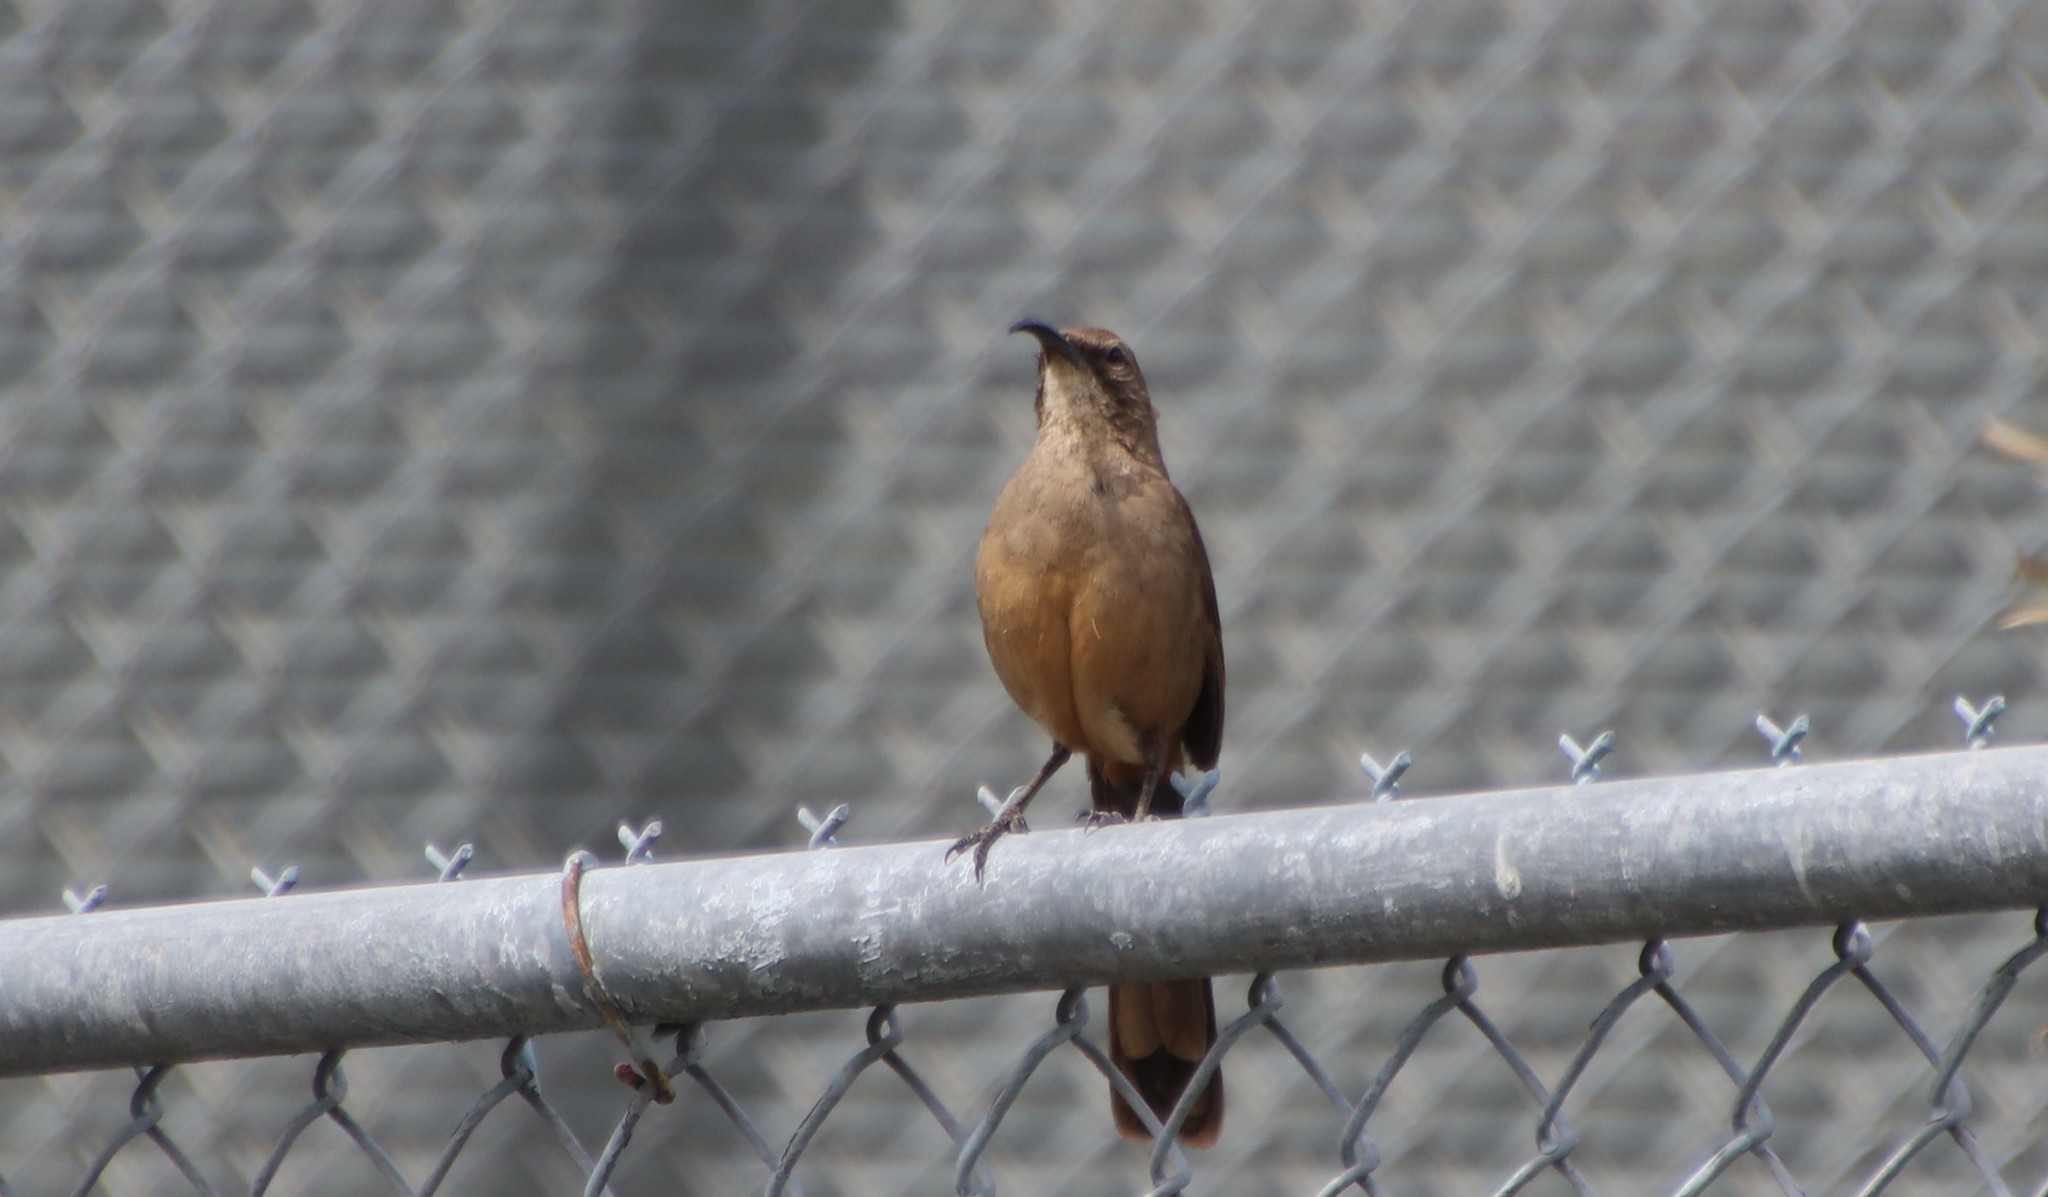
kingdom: Animalia
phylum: Chordata
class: Aves
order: Passeriformes
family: Mimidae
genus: Toxostoma
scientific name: Toxostoma redivivum
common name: California thrasher
